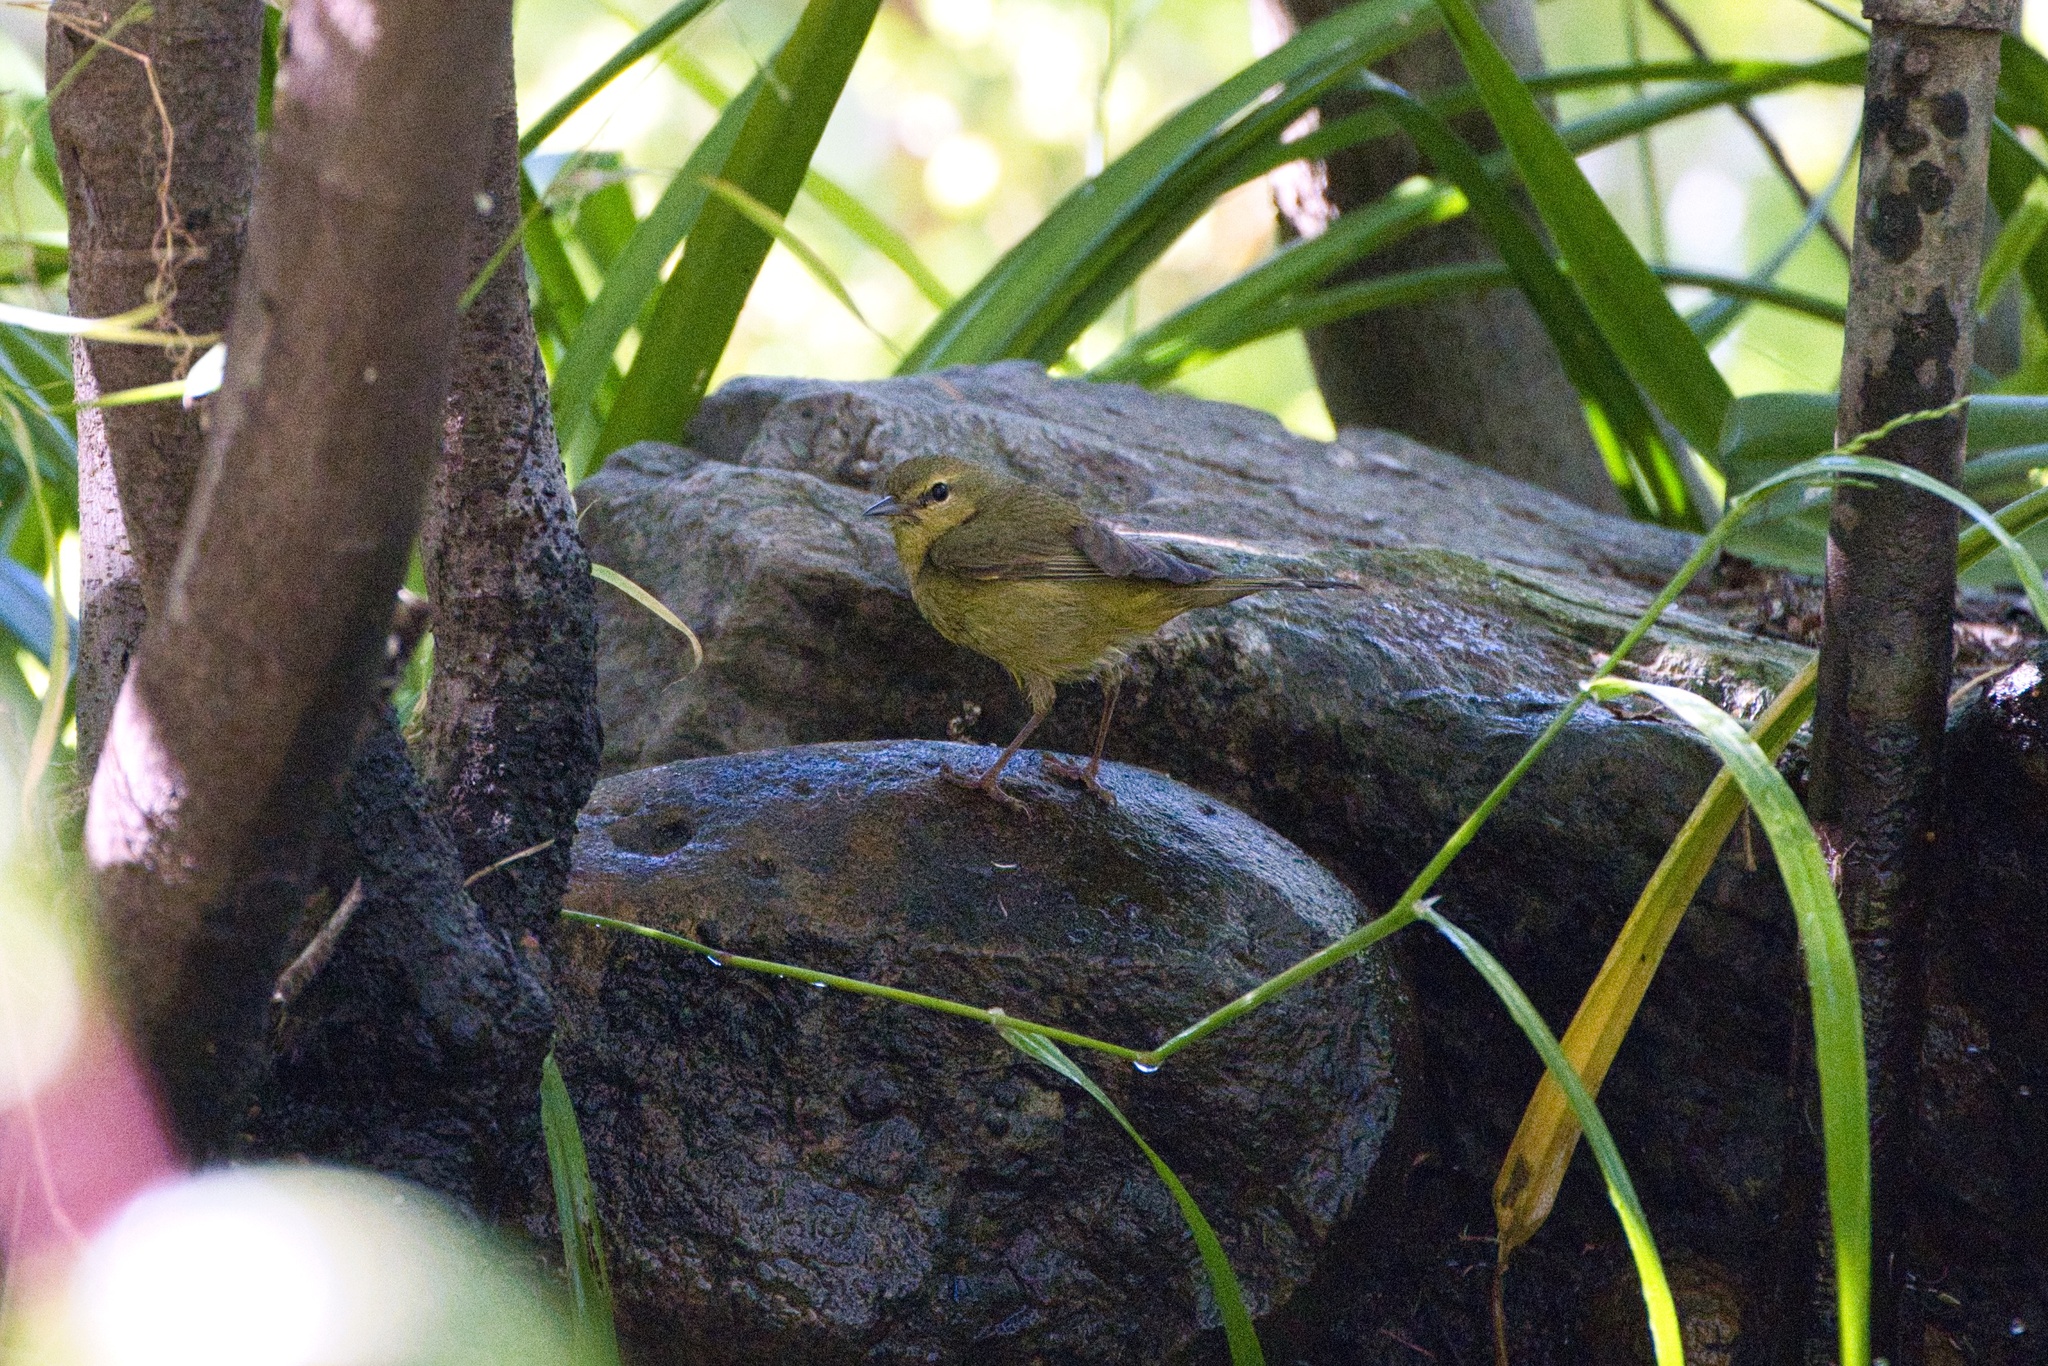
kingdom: Animalia
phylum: Chordata
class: Aves
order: Passeriformes
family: Parulidae
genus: Leiothlypis
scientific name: Leiothlypis celata
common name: Orange-crowned warbler
